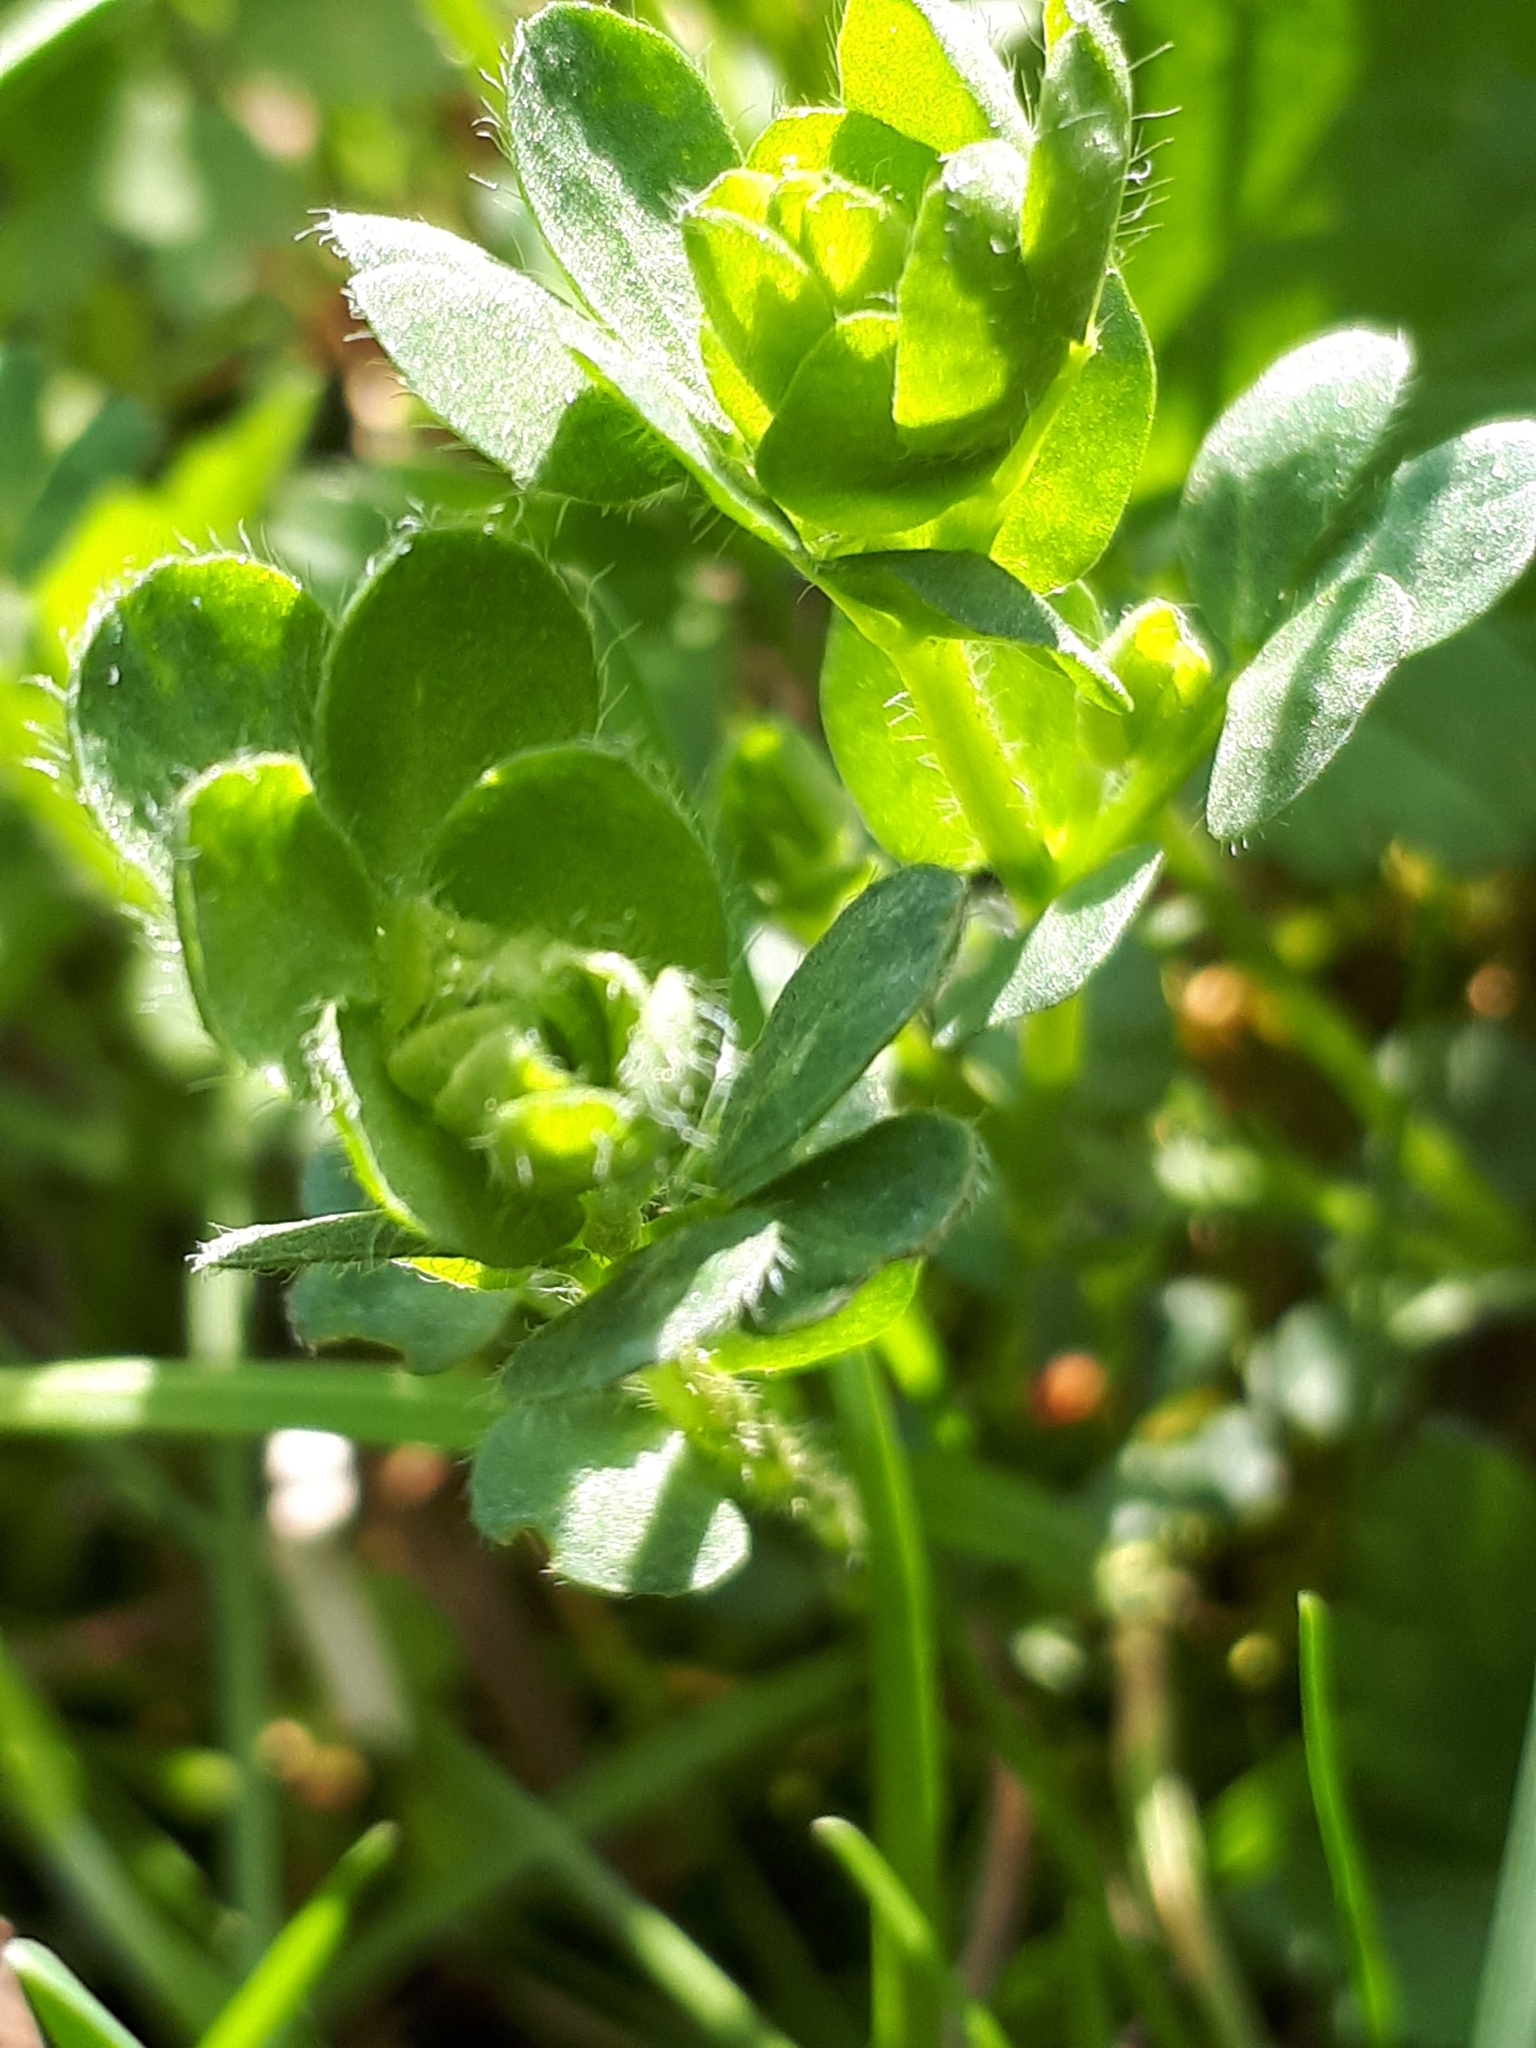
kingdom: Plantae
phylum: Tracheophyta
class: Magnoliopsida
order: Fabales
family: Fabaceae
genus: Lotus
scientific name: Lotus corniculatus
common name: Common bird's-foot-trefoil
